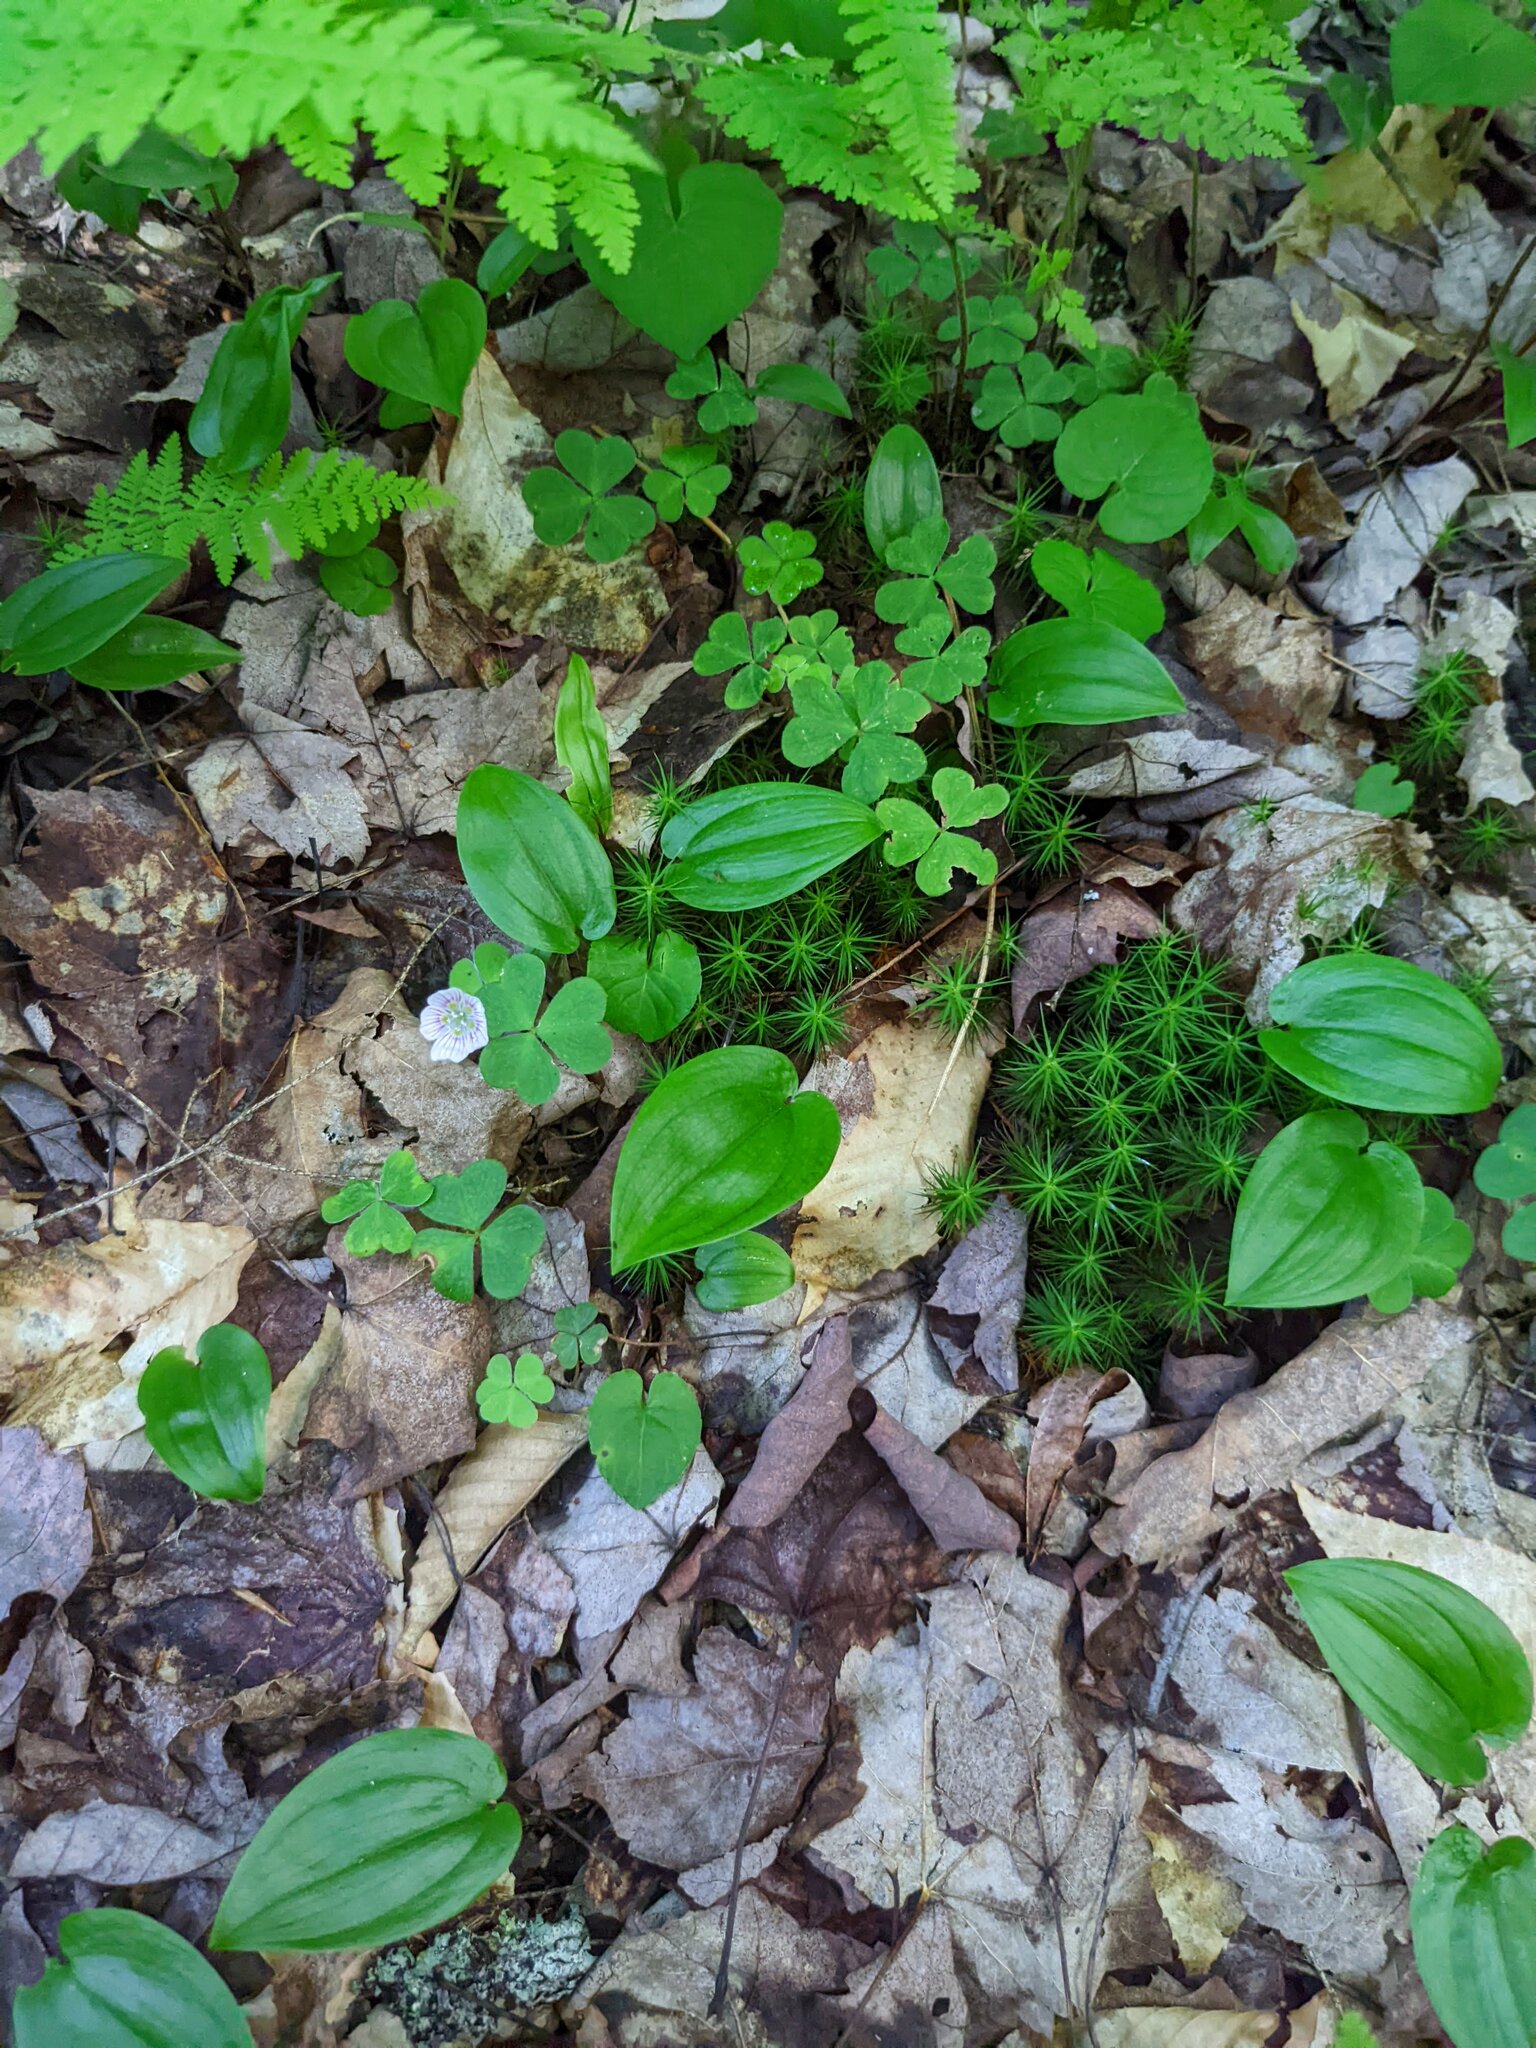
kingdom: Plantae
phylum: Tracheophyta
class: Magnoliopsida
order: Oxalidales
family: Oxalidaceae
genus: Oxalis
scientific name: Oxalis montana
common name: American wood-sorrel
